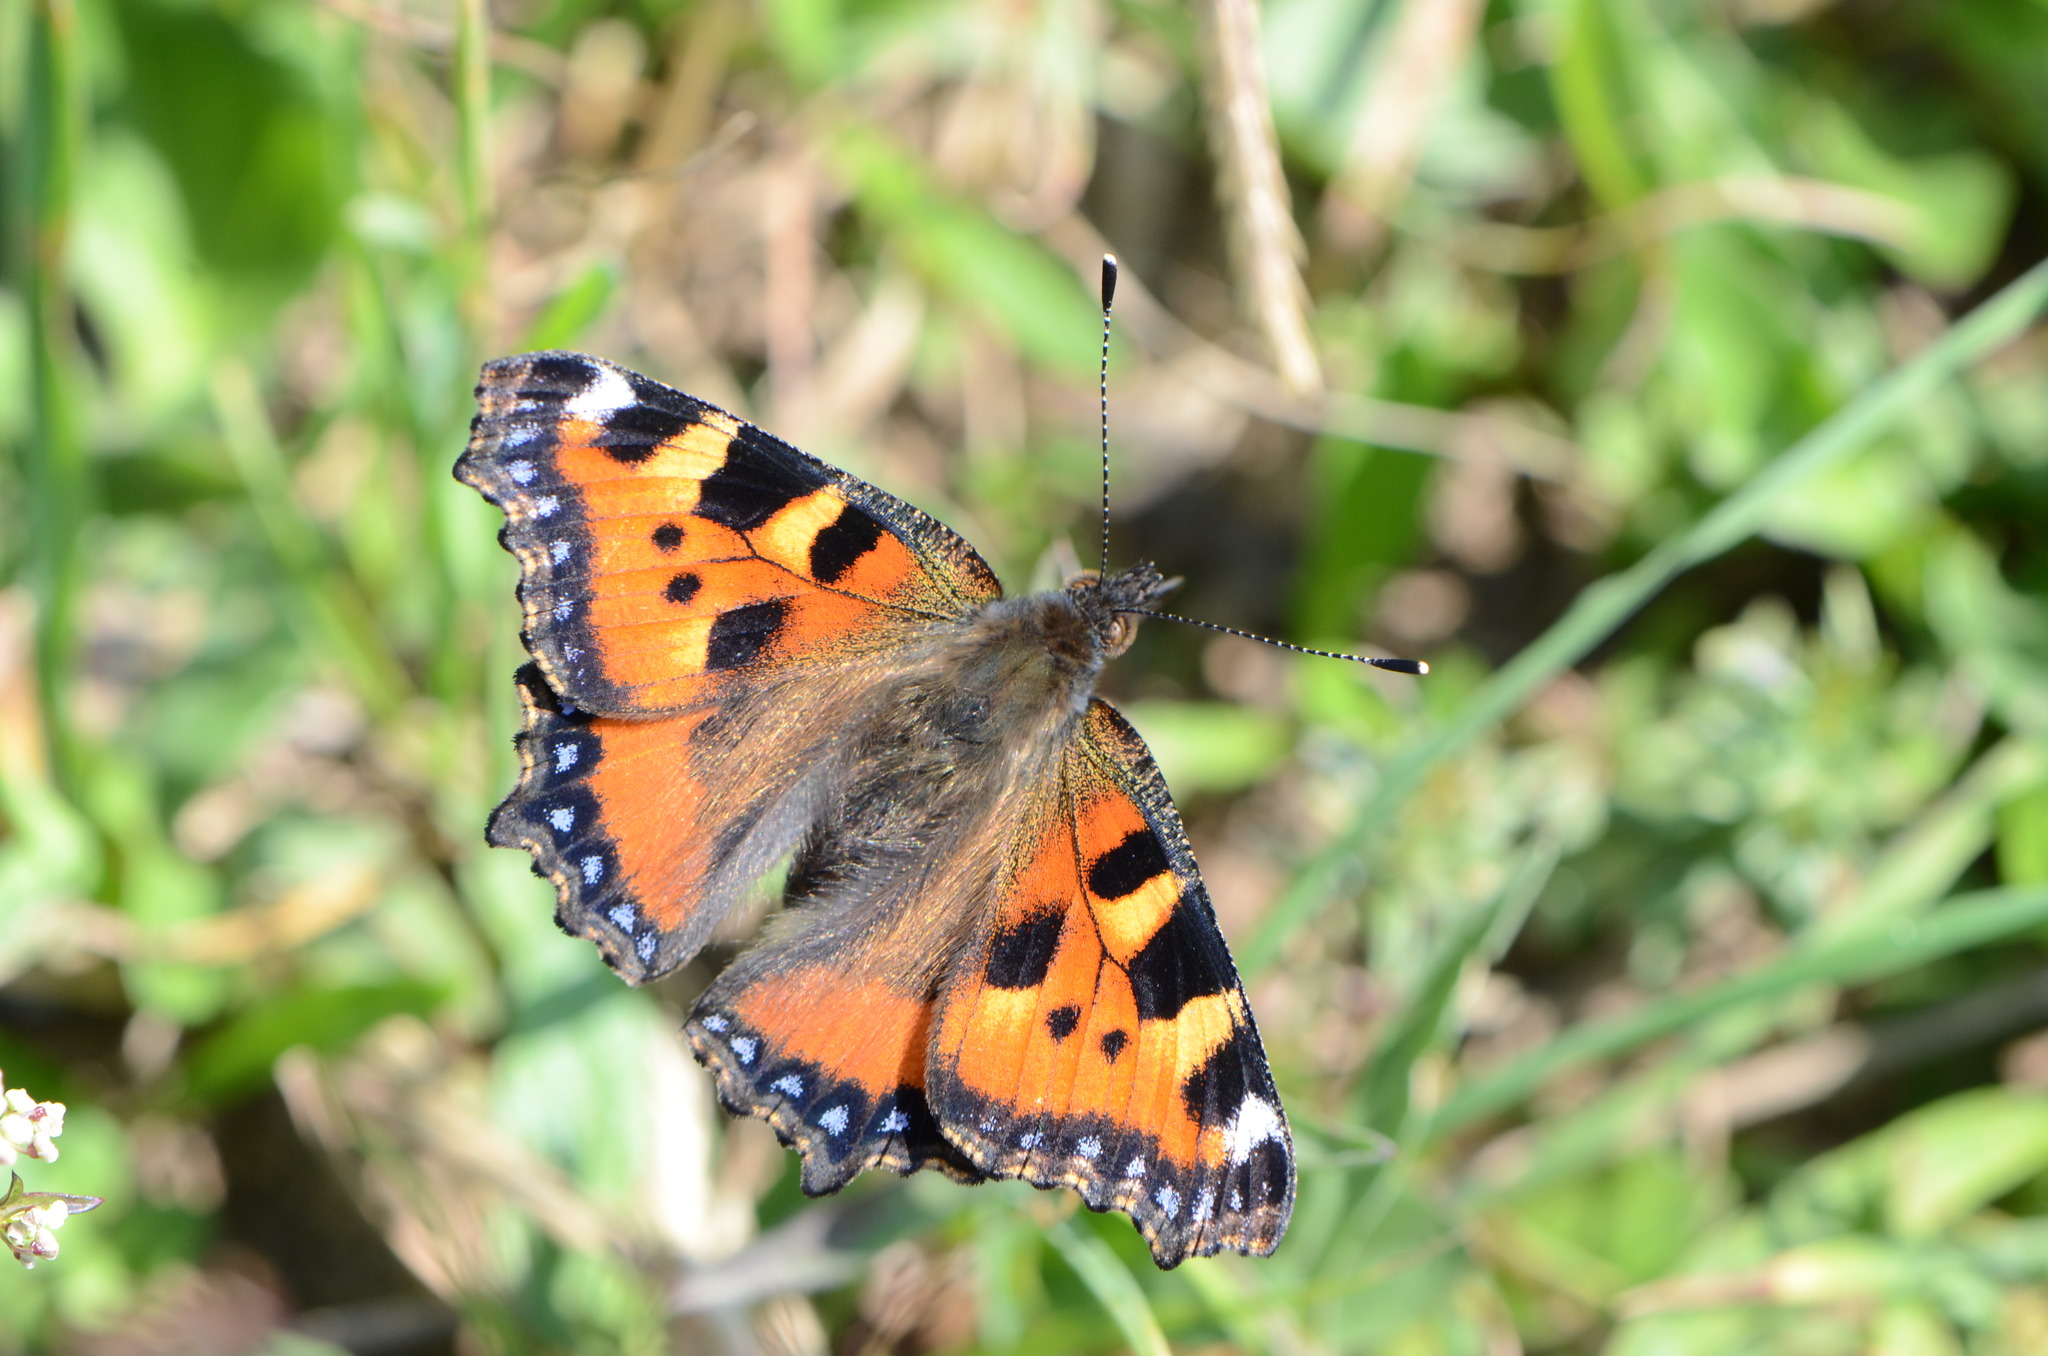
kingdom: Animalia
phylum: Arthropoda
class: Insecta
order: Lepidoptera
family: Nymphalidae
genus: Aglais
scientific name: Aglais urticae
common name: Small tortoiseshell
